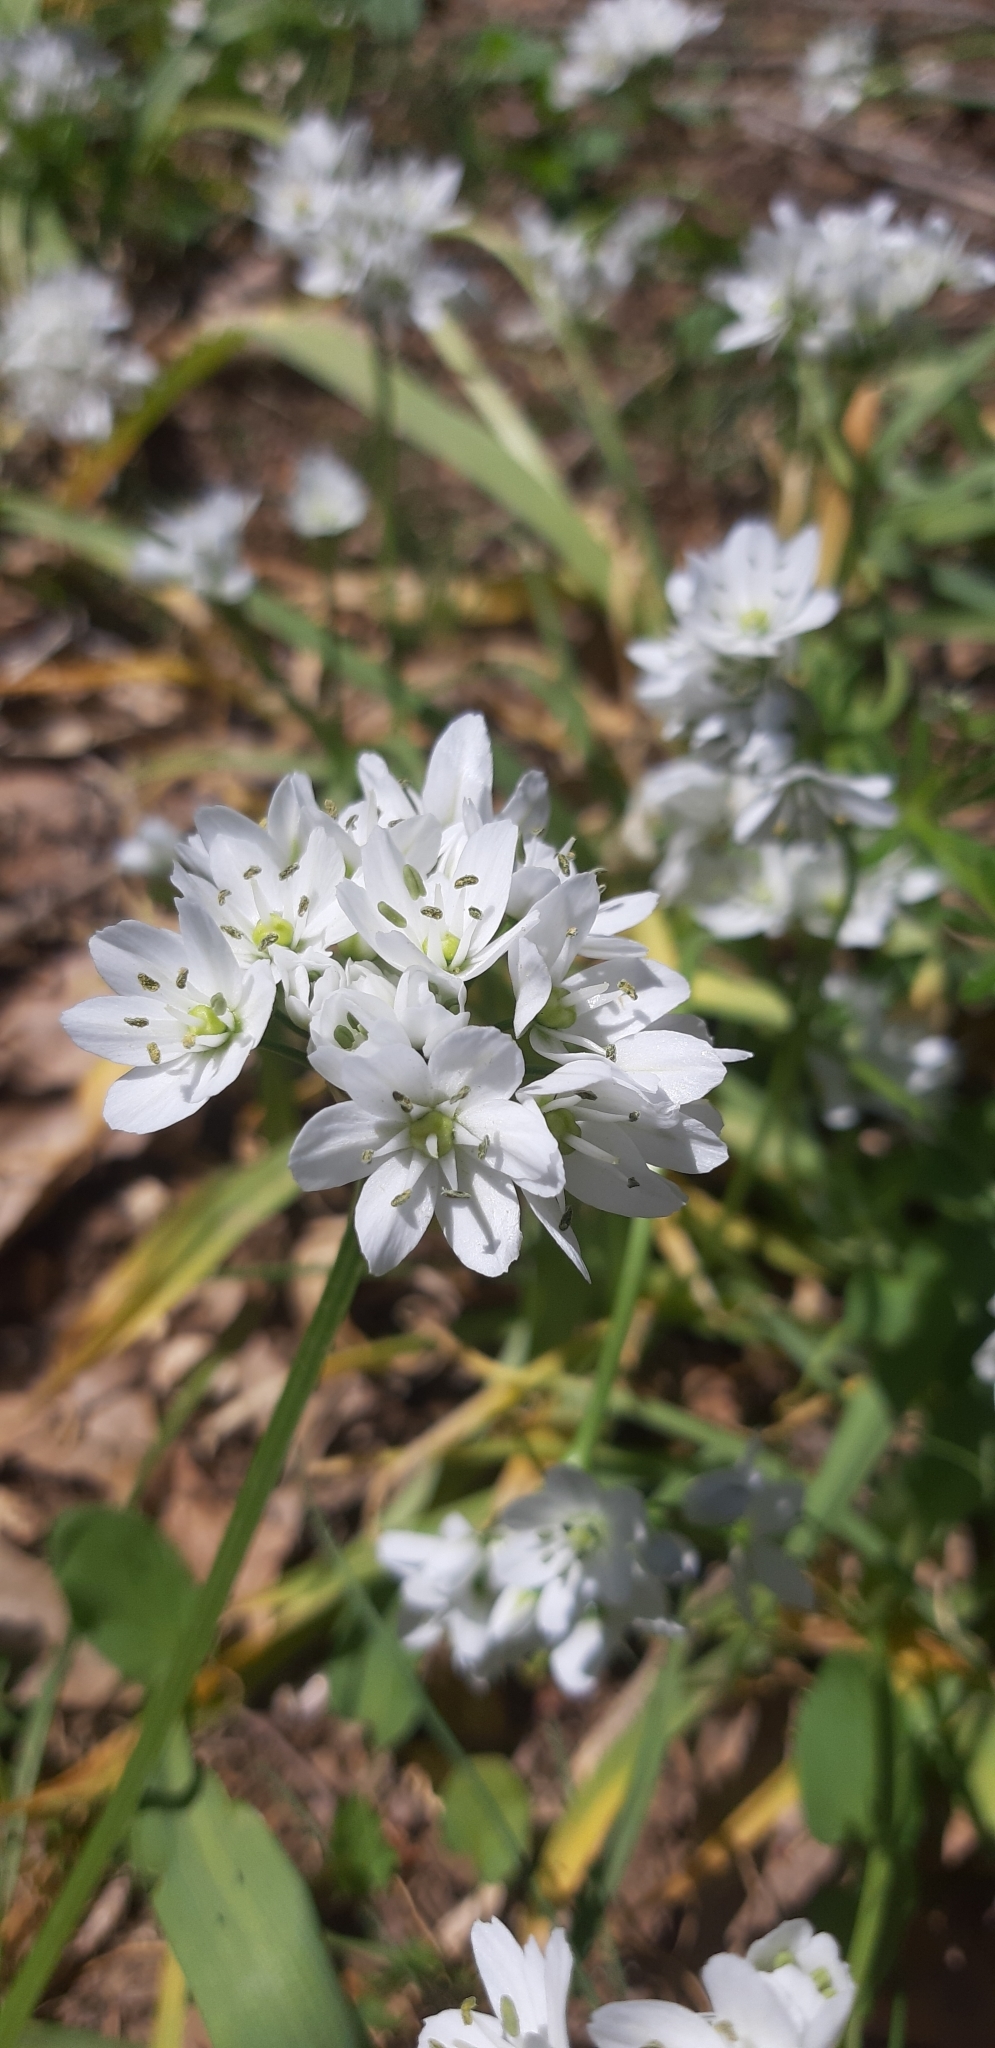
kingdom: Plantae
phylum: Tracheophyta
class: Liliopsida
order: Asparagales
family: Amaryllidaceae
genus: Allium
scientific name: Allium neapolitanum
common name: Neapolitan garlic
